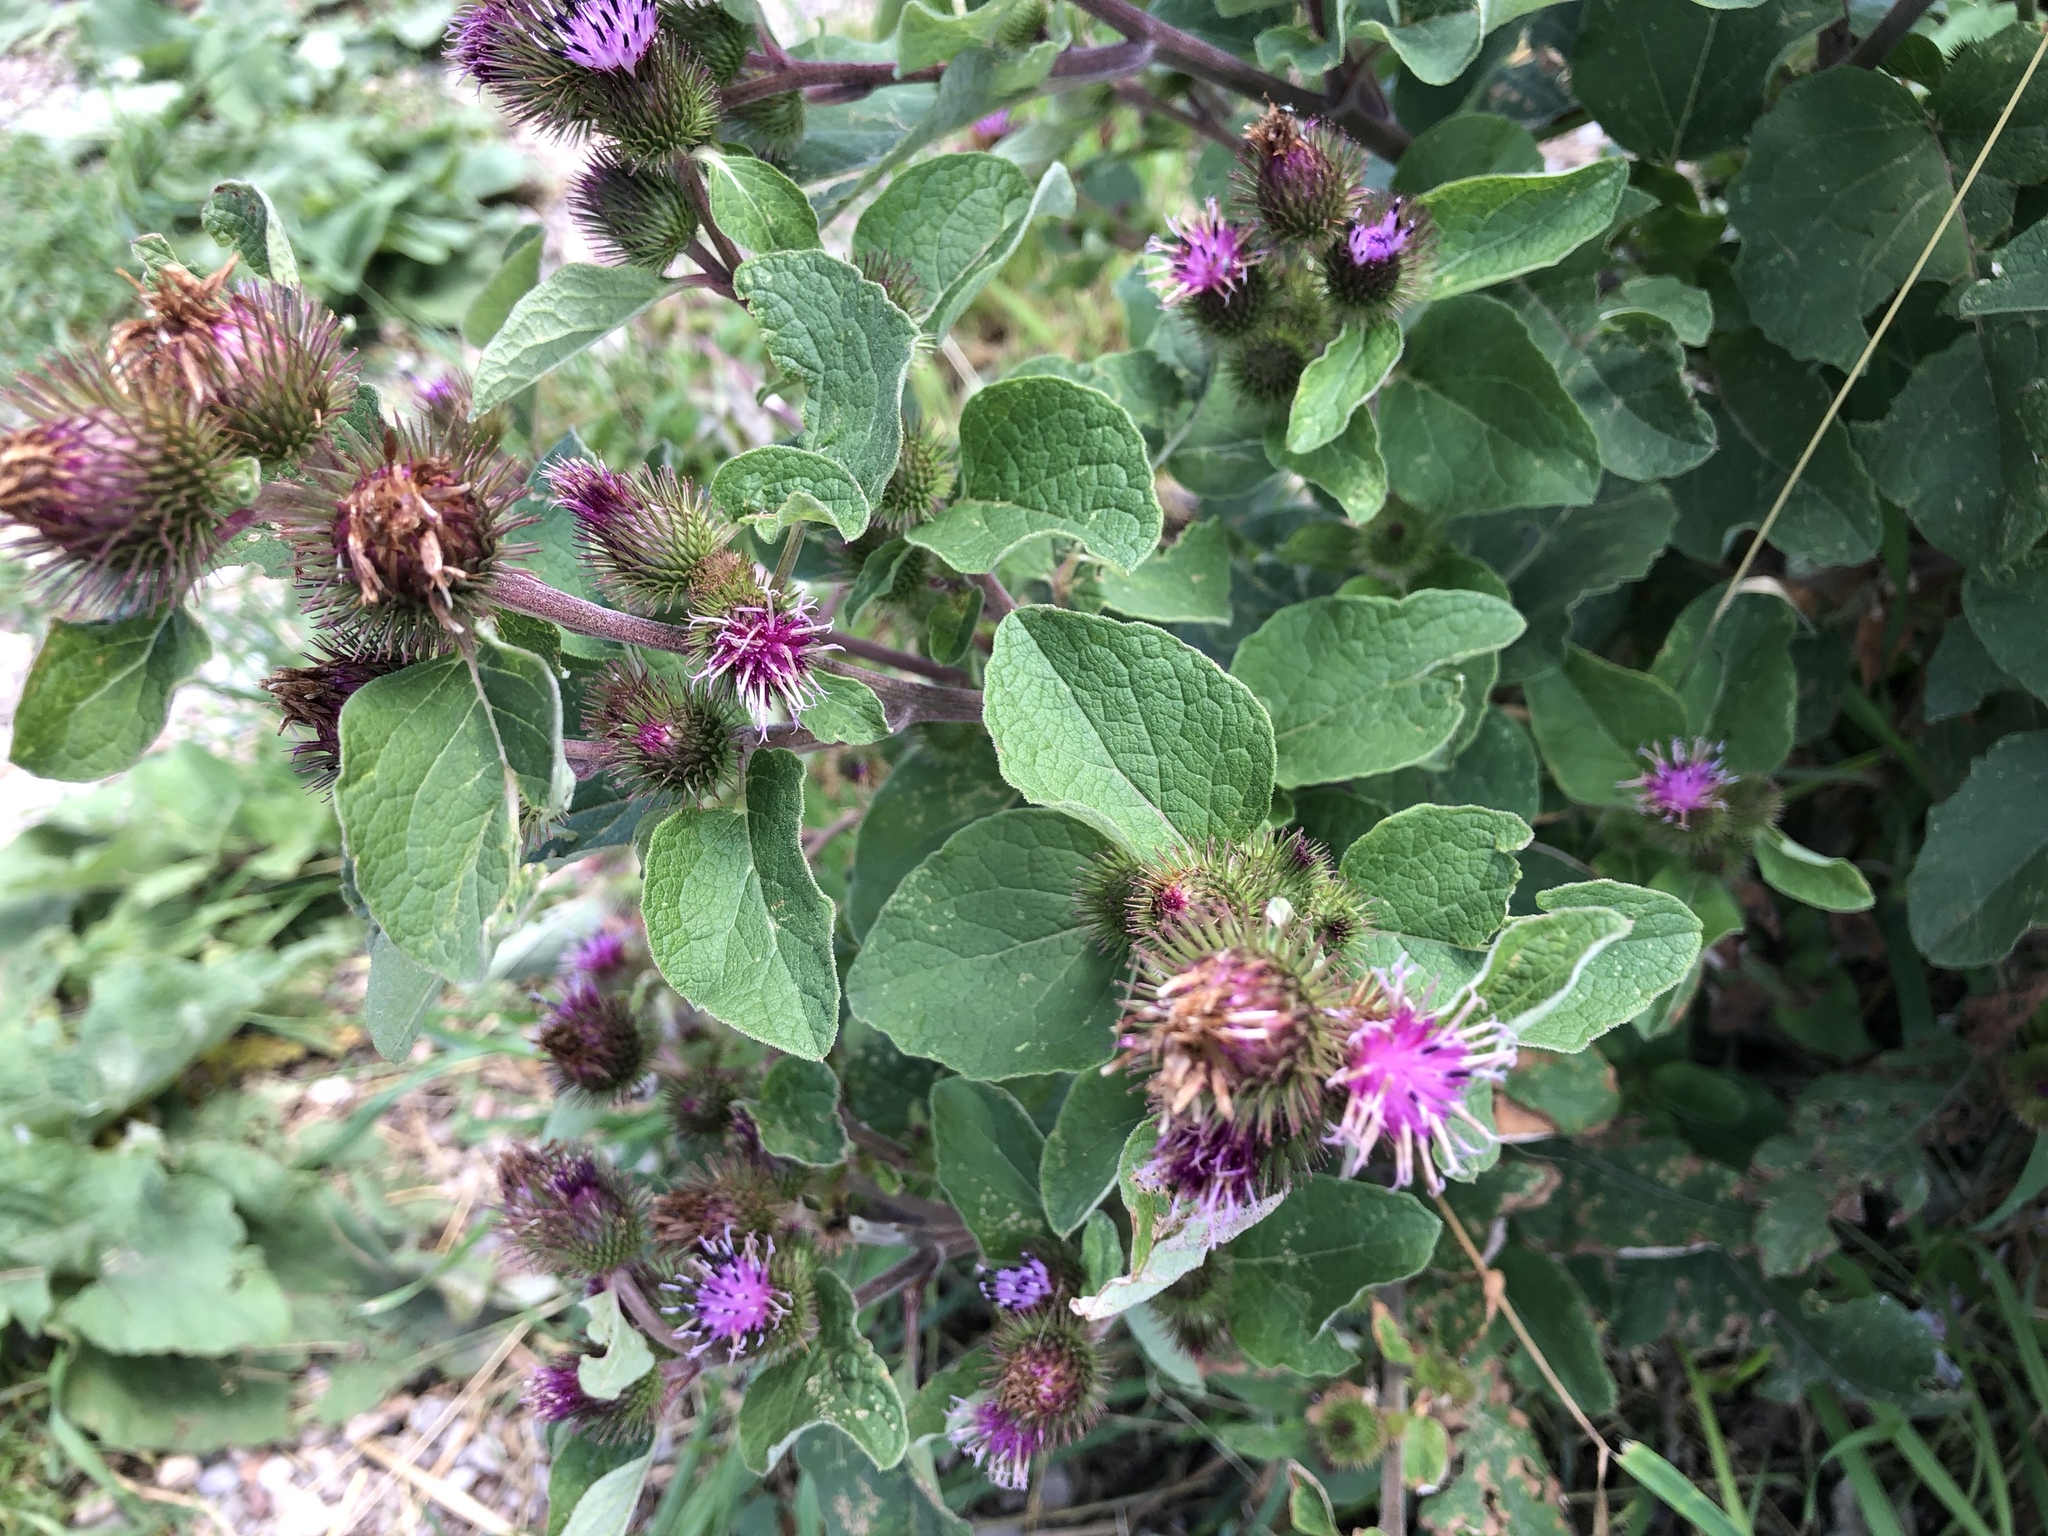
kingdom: Plantae
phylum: Tracheophyta
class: Magnoliopsida
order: Asterales
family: Asteraceae
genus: Arctium
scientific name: Arctium minus
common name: Lesser burdock
